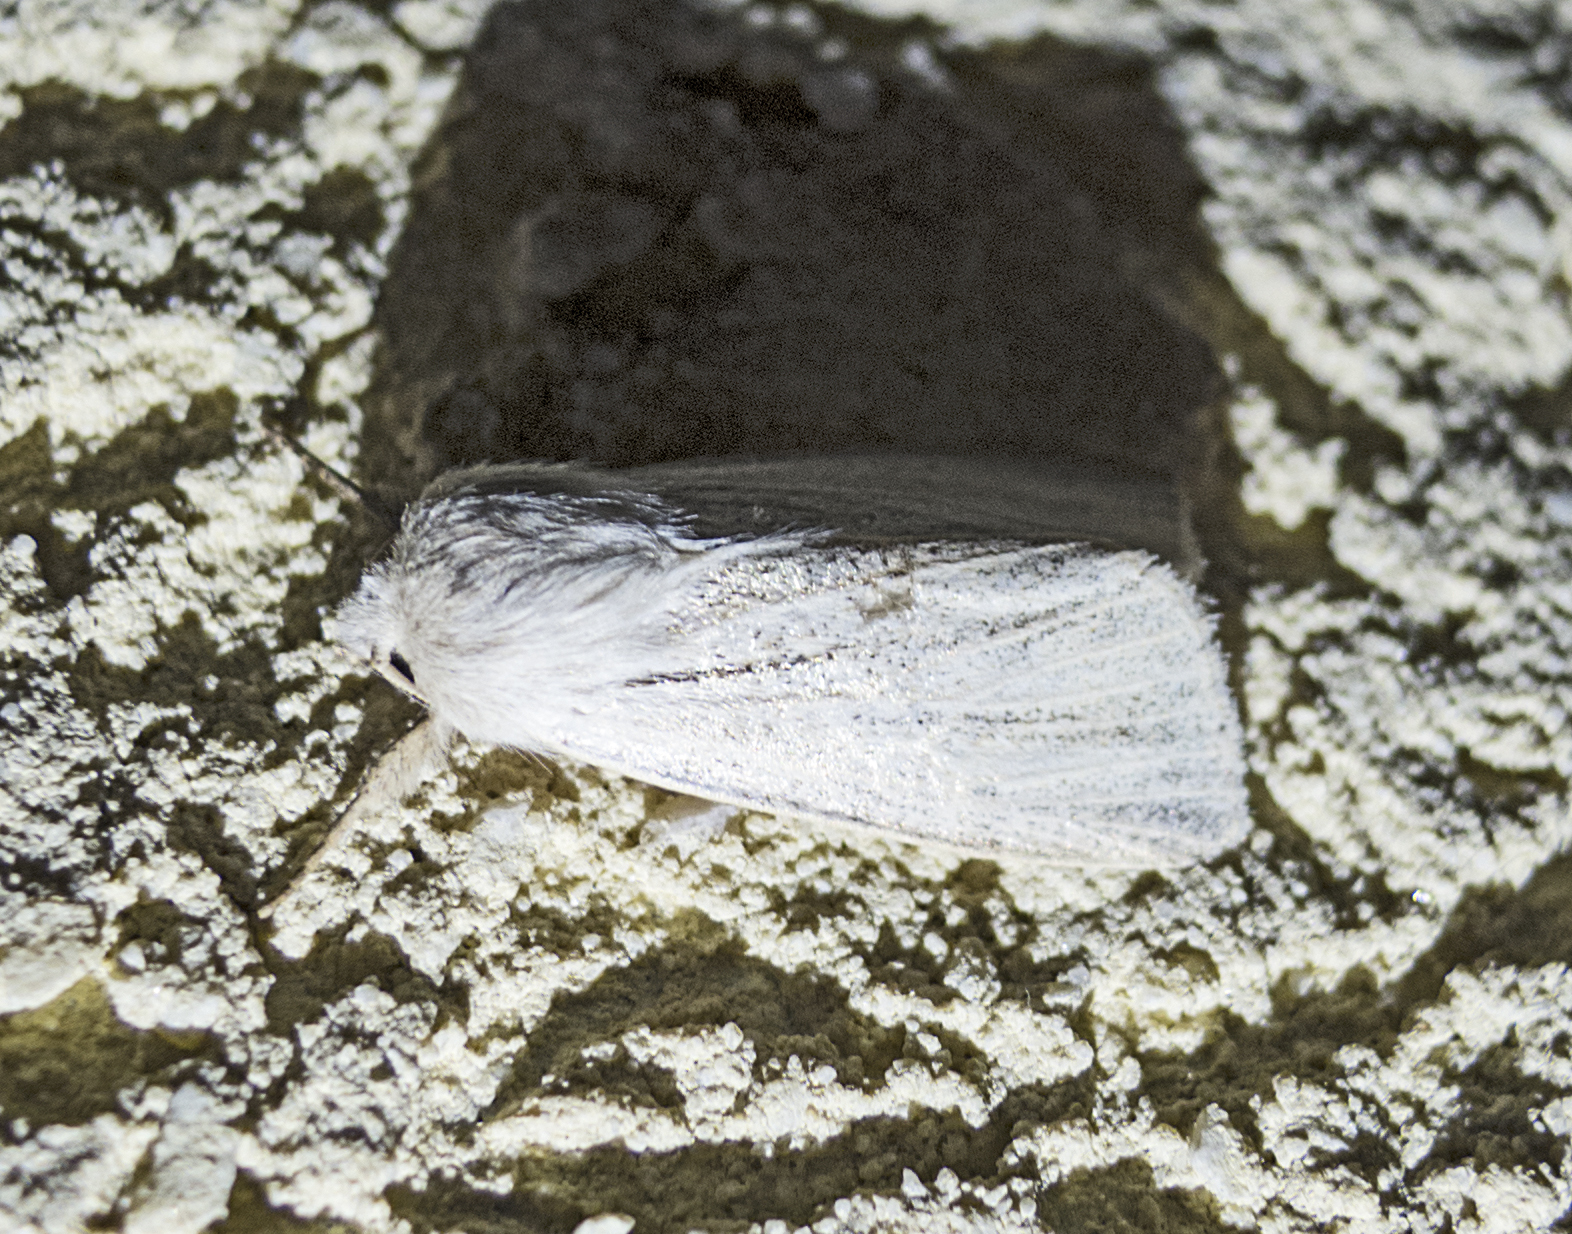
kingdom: Animalia
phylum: Arthropoda
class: Insecta
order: Lepidoptera
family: Noctuidae
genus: Simyra
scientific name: Simyra albovenosa
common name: Reed dagger
